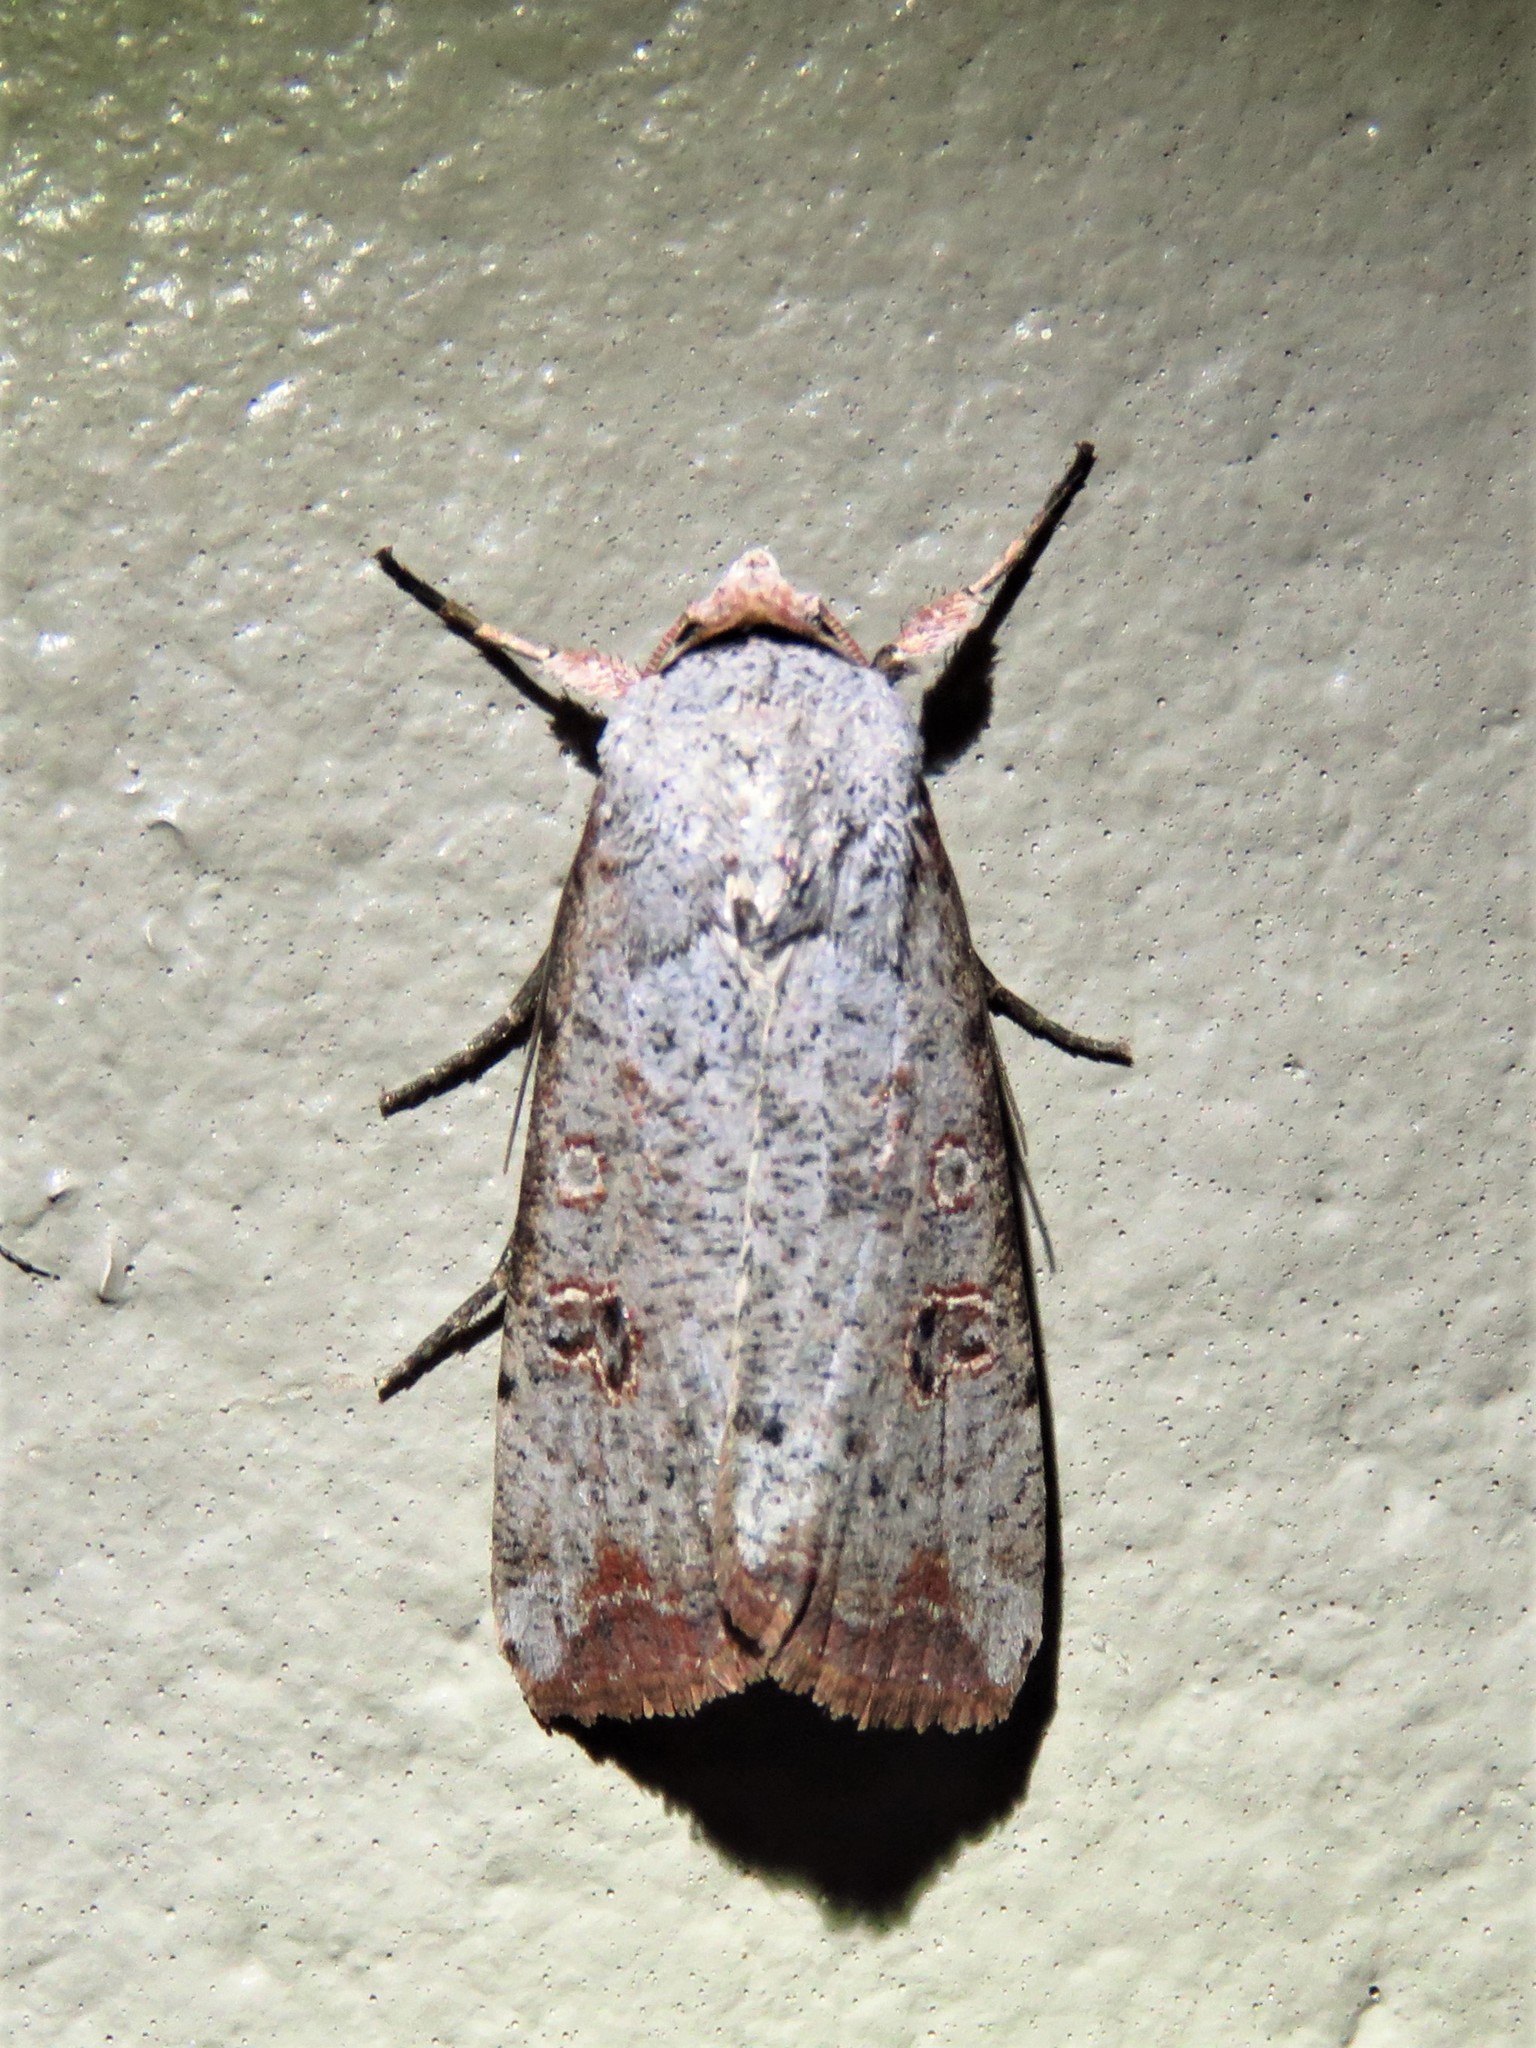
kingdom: Animalia
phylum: Arthropoda
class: Insecta
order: Lepidoptera
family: Noctuidae
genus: Anicla
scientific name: Anicla infecta
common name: Green cutworm
